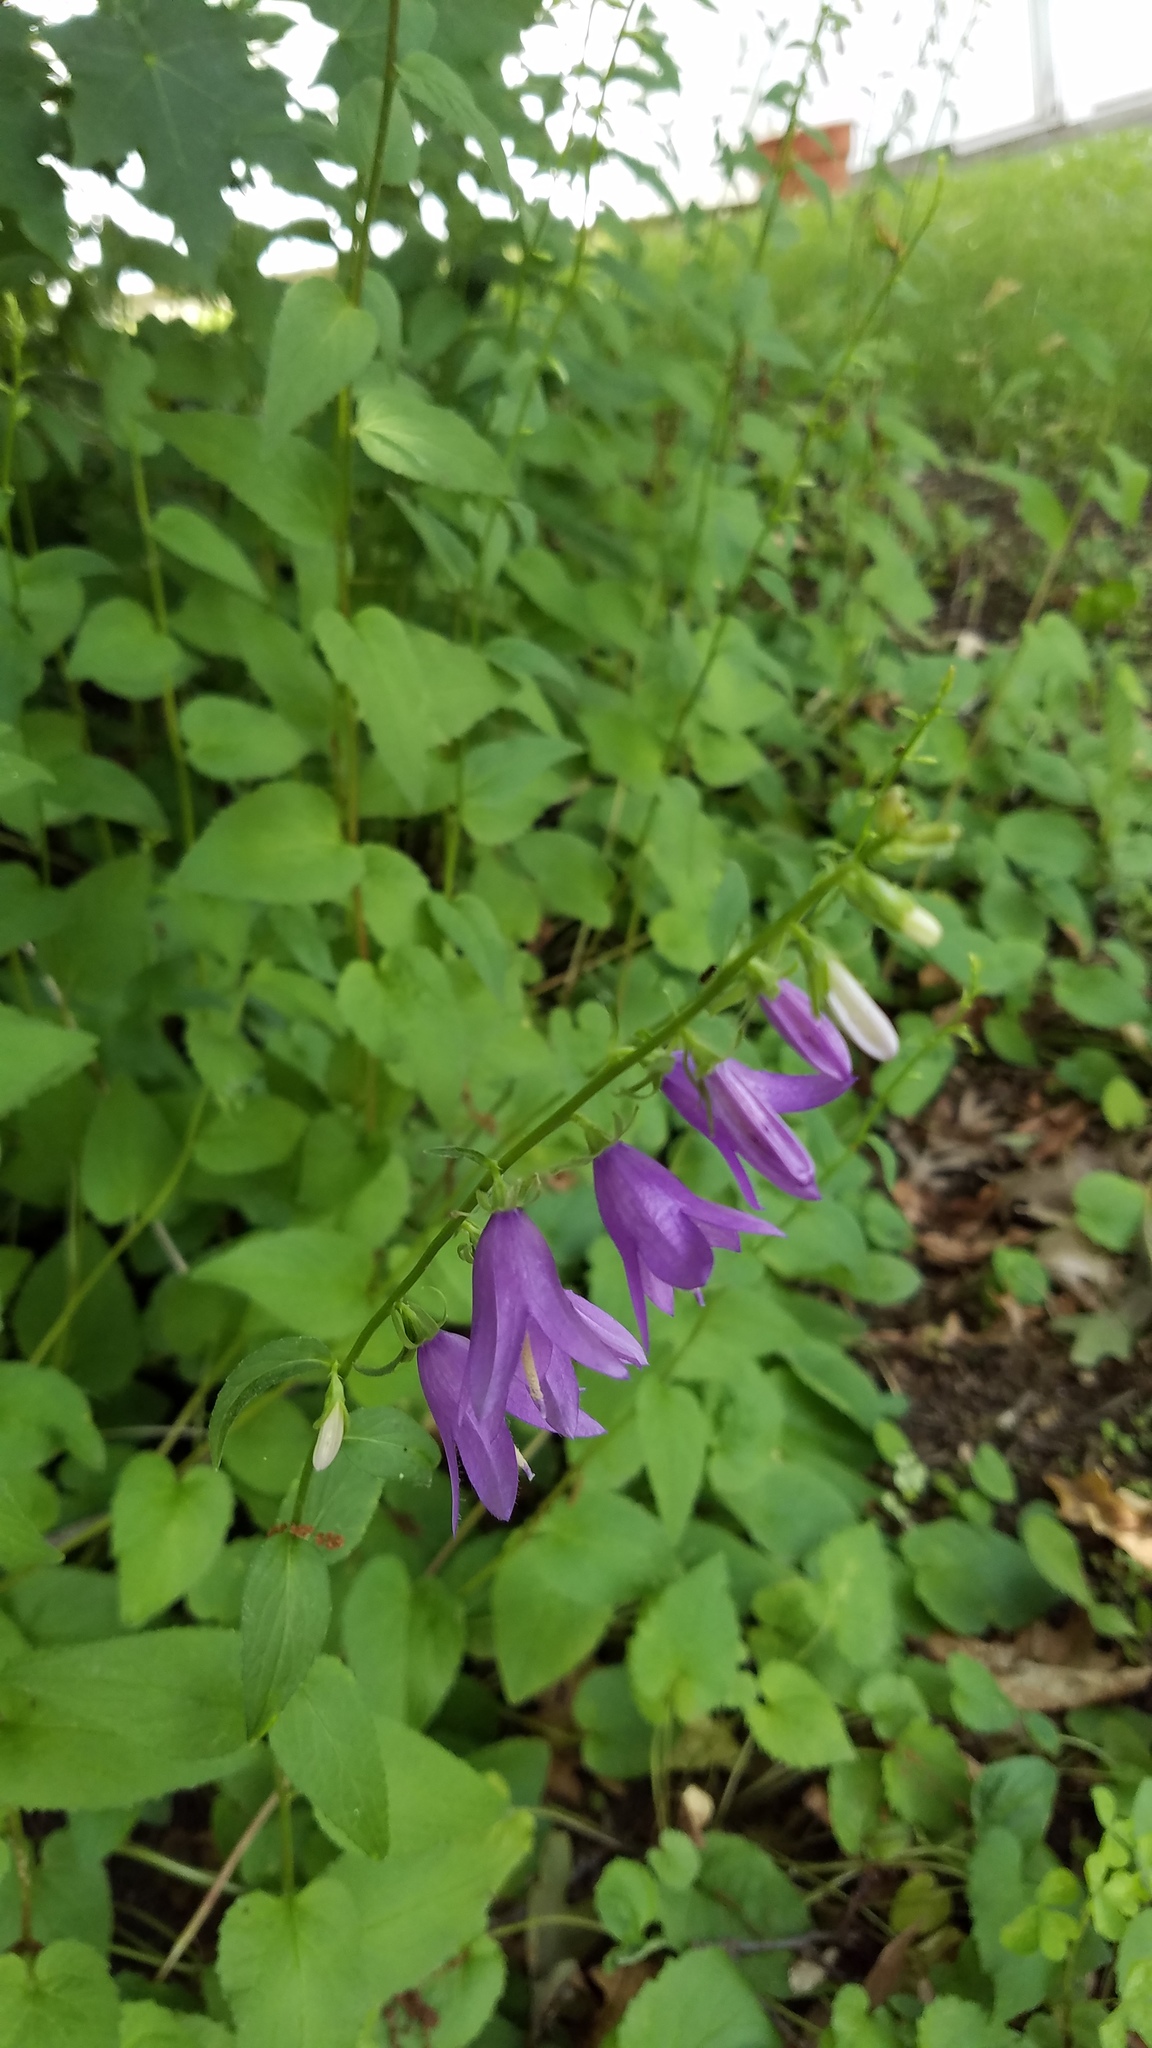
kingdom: Plantae
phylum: Tracheophyta
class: Magnoliopsida
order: Asterales
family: Campanulaceae
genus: Campanula
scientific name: Campanula rapunculoides
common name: Creeping bellflower
